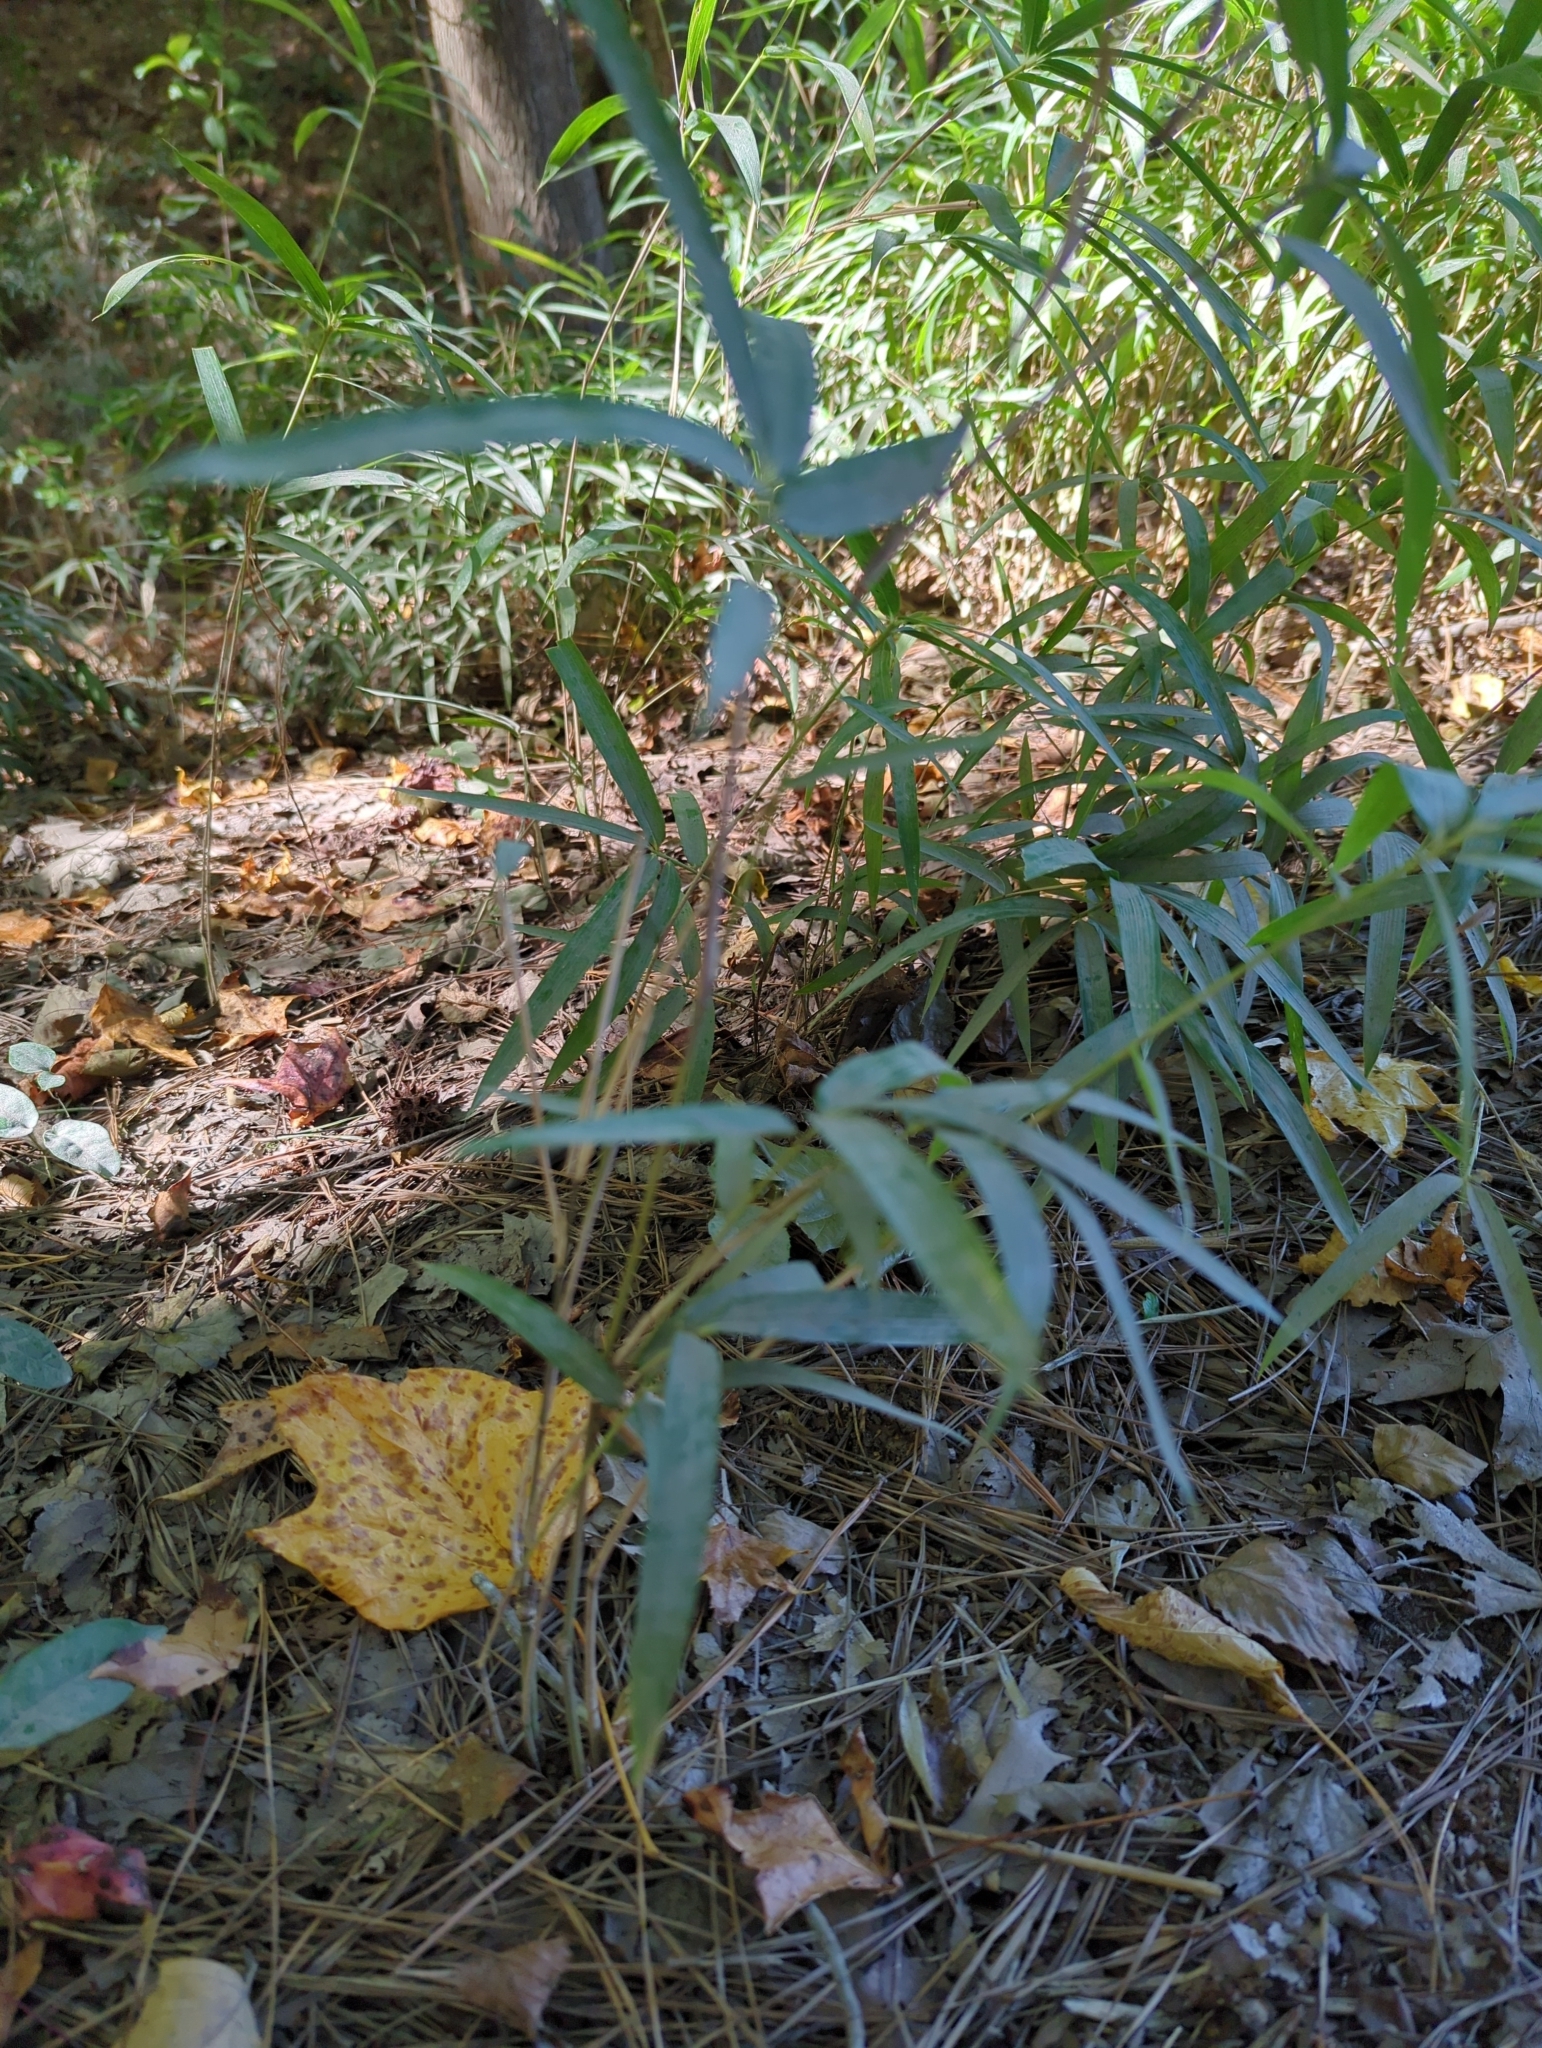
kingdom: Plantae
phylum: Tracheophyta
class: Liliopsida
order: Poales
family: Poaceae
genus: Arundinaria
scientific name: Arundinaria gigantea
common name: Giant cane
